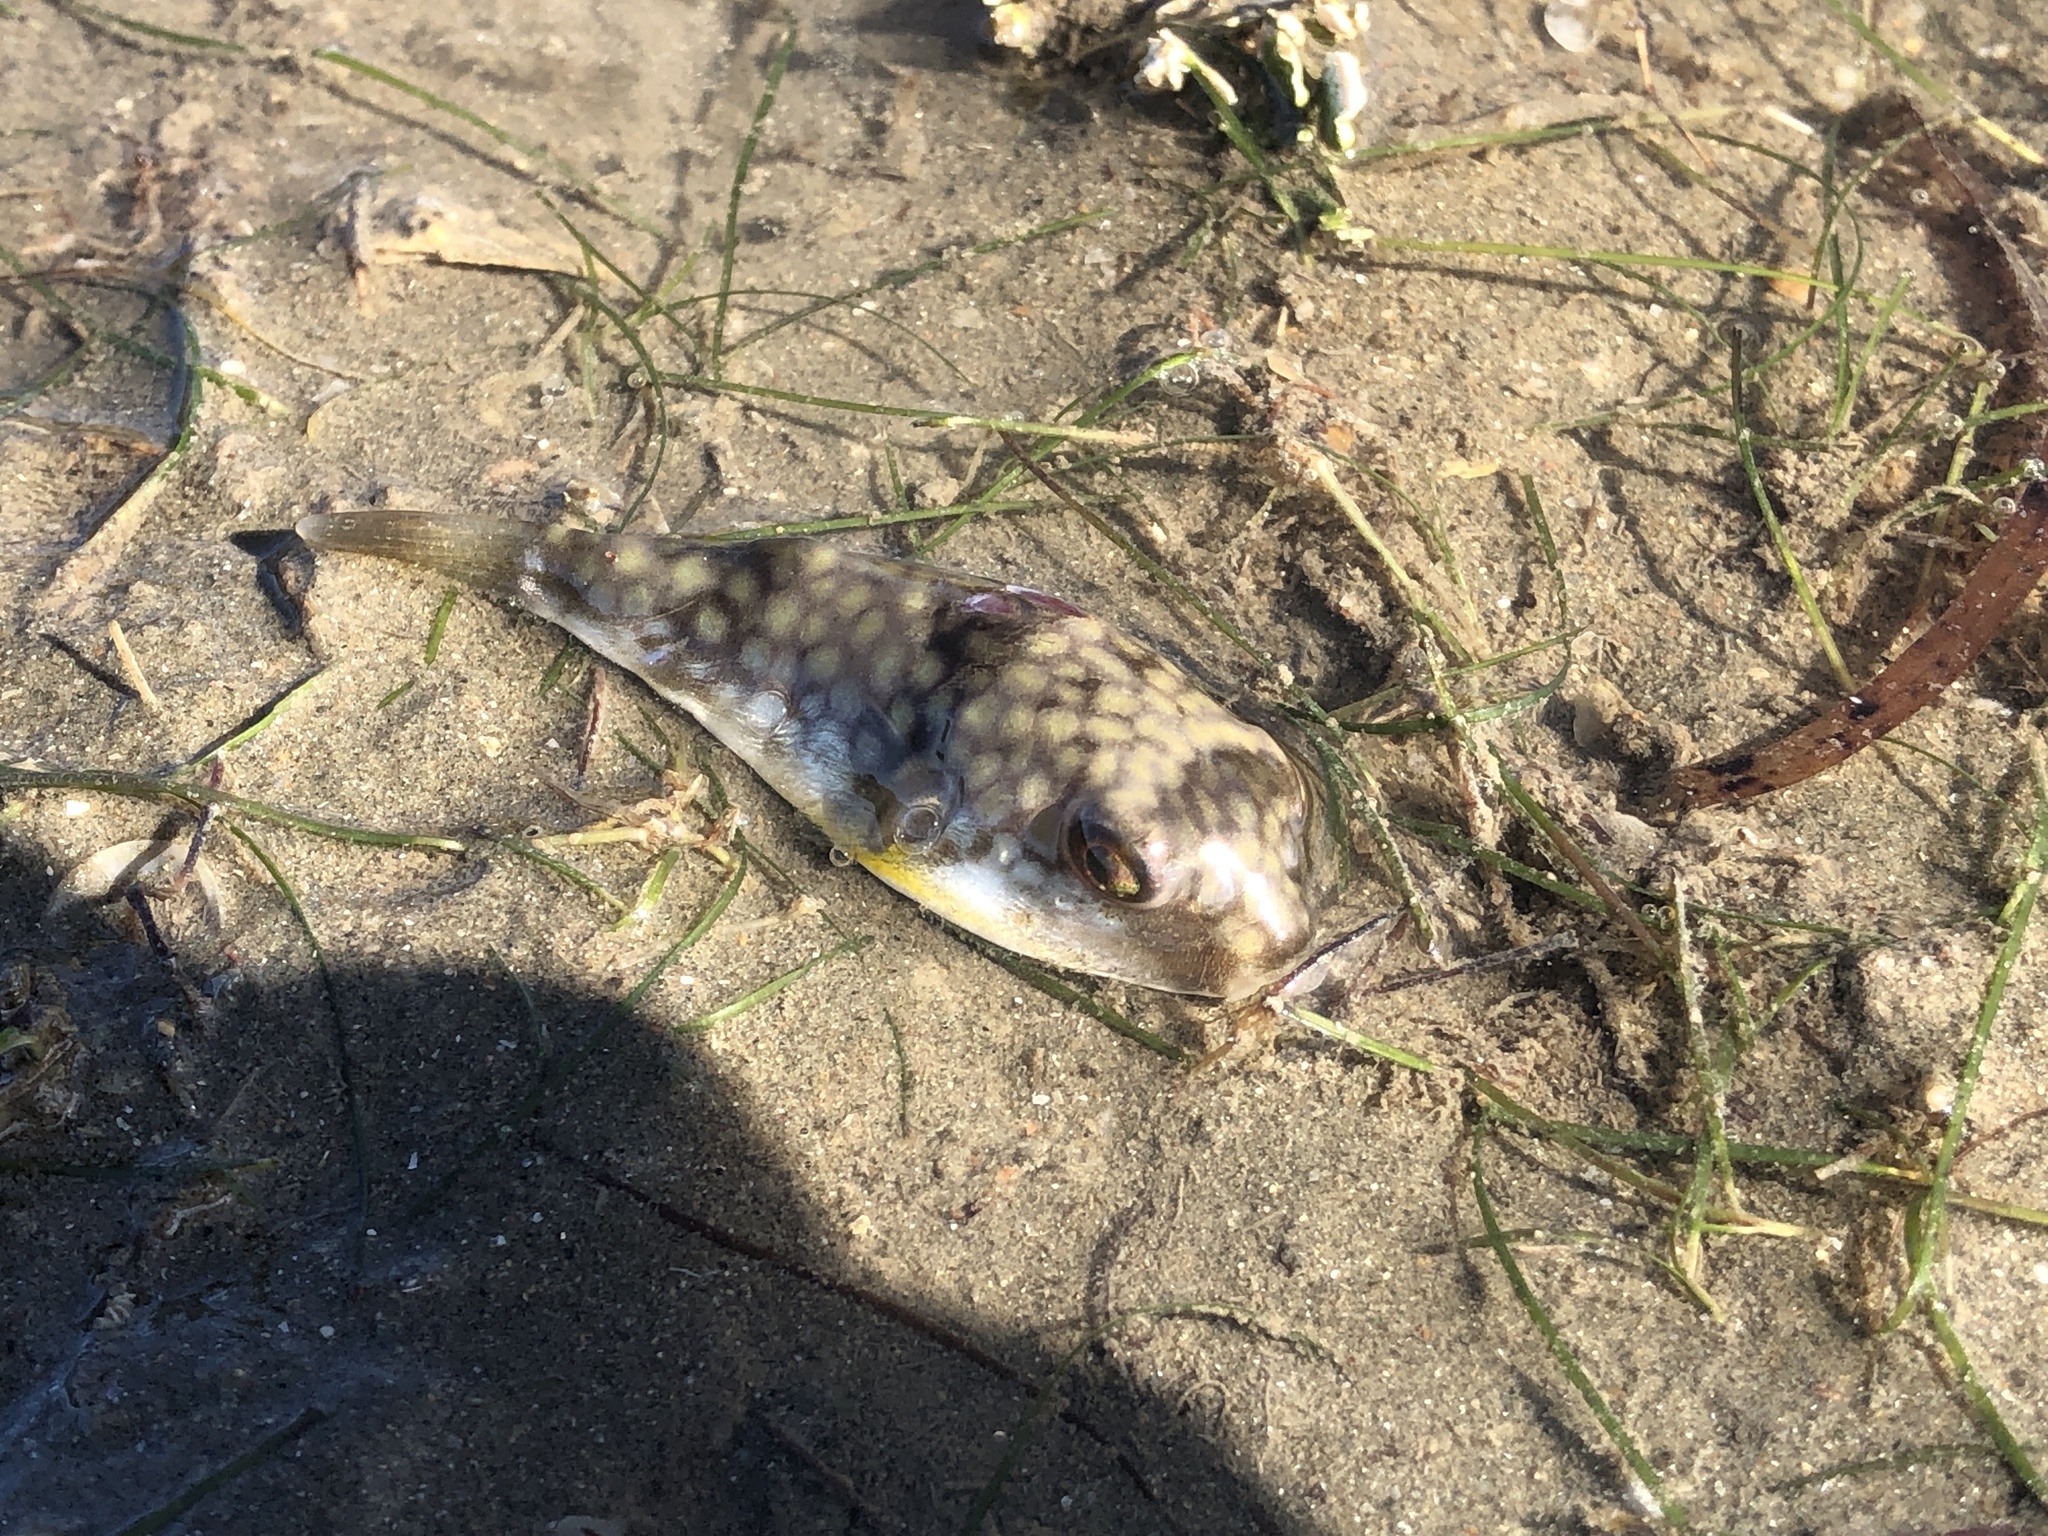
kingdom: Animalia
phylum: Chordata
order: Tetraodontiformes
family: Tetraodontidae
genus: Chelonodontops
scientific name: Chelonodontops patoca
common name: Gangetic blow fish
